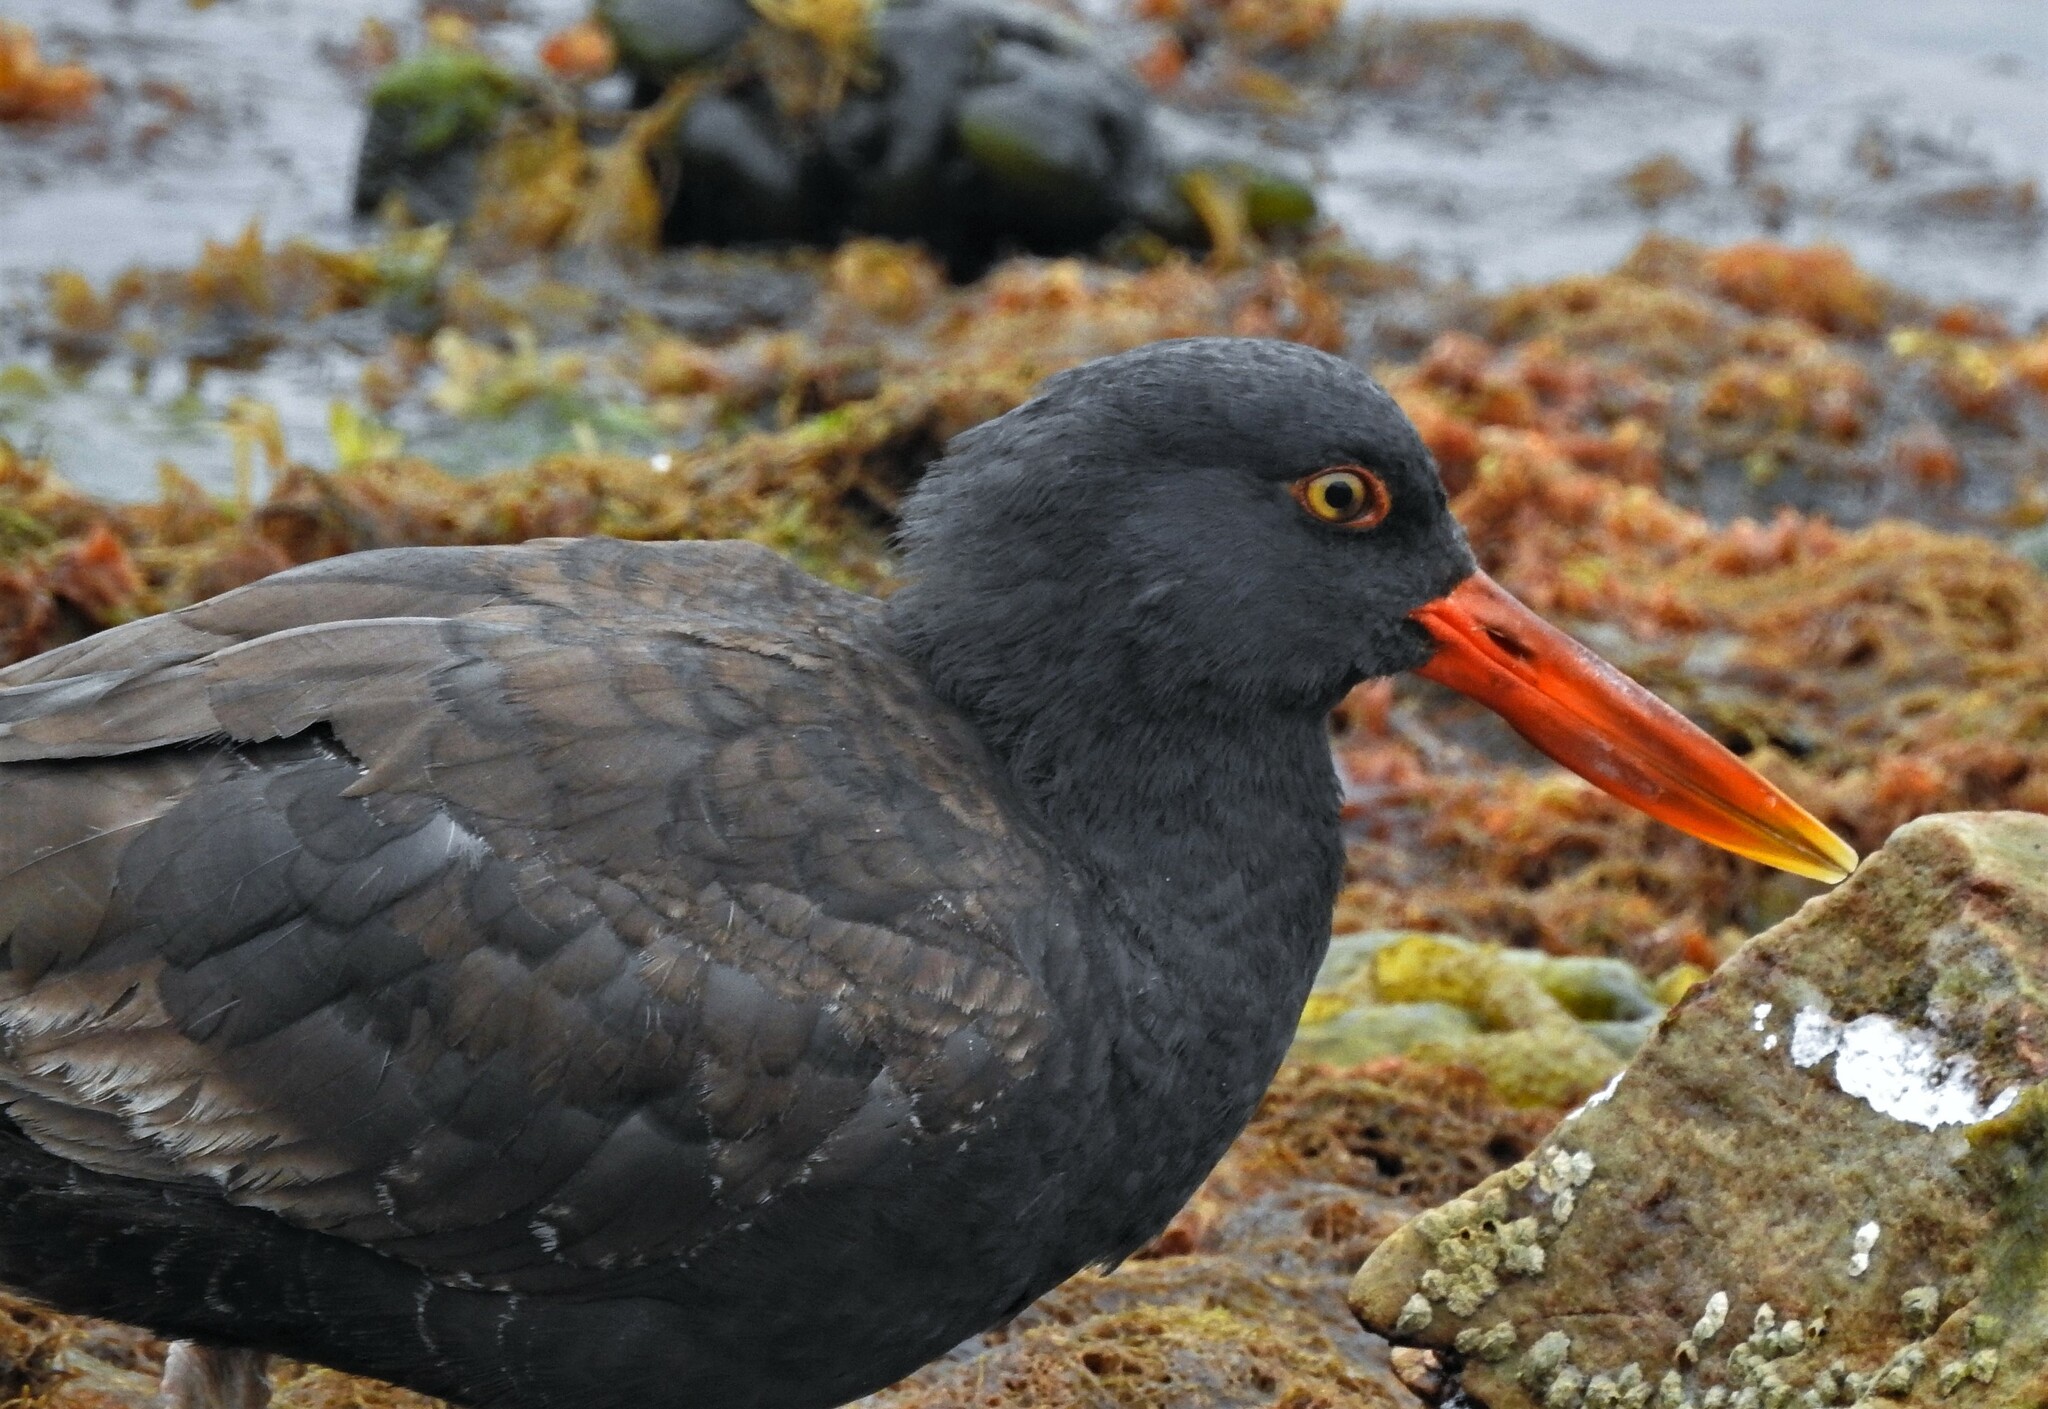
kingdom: Animalia
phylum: Chordata
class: Aves
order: Charadriiformes
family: Haematopodidae
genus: Haematopus
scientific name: Haematopus ater
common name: Blackish oystercatcher
